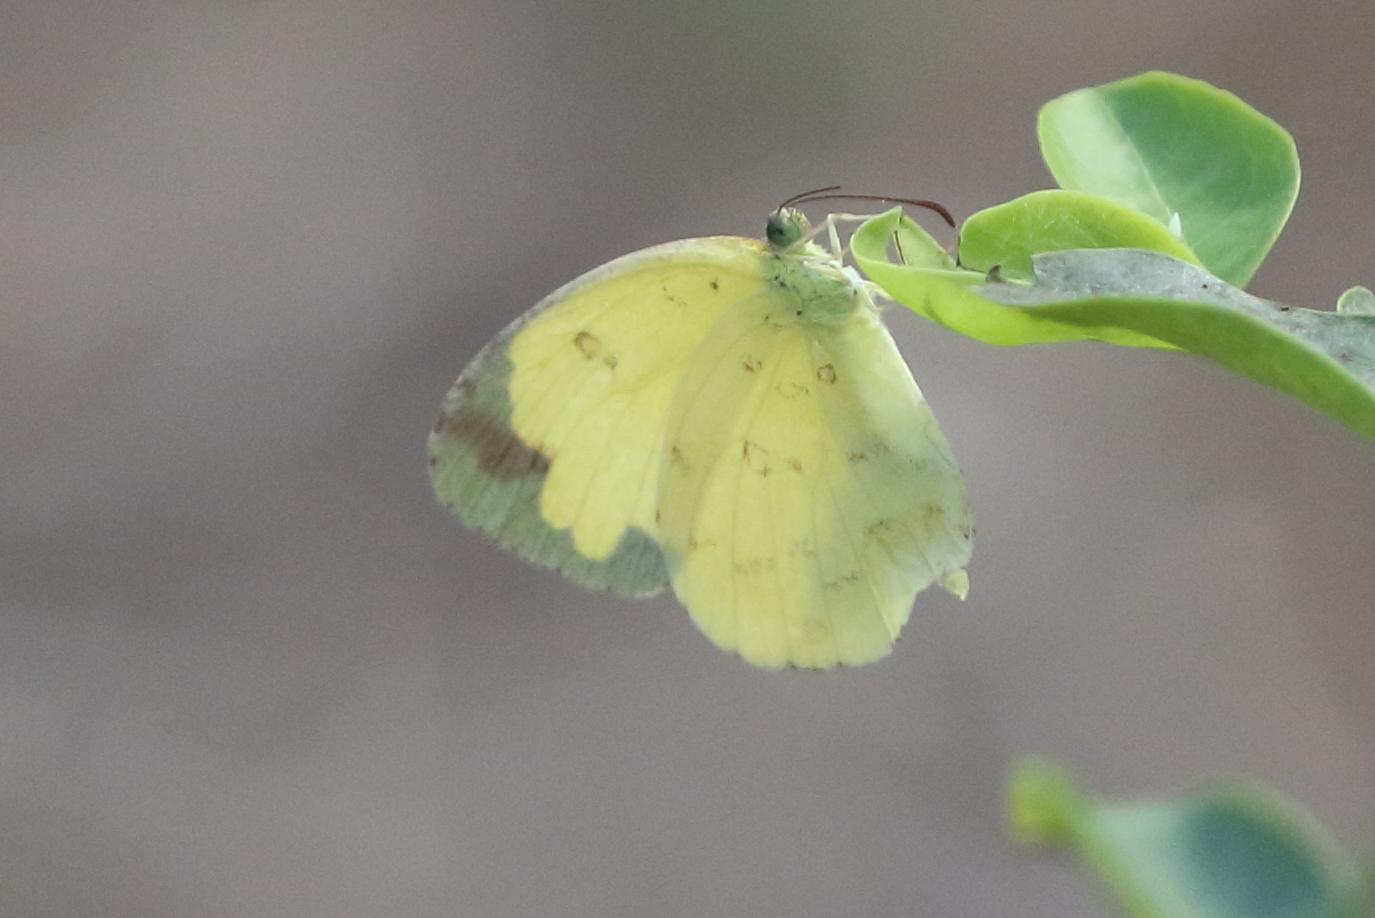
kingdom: Animalia
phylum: Arthropoda
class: Insecta
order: Lepidoptera
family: Pieridae
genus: Eurema
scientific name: Eurema hecabe
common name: Pale grass yellow
